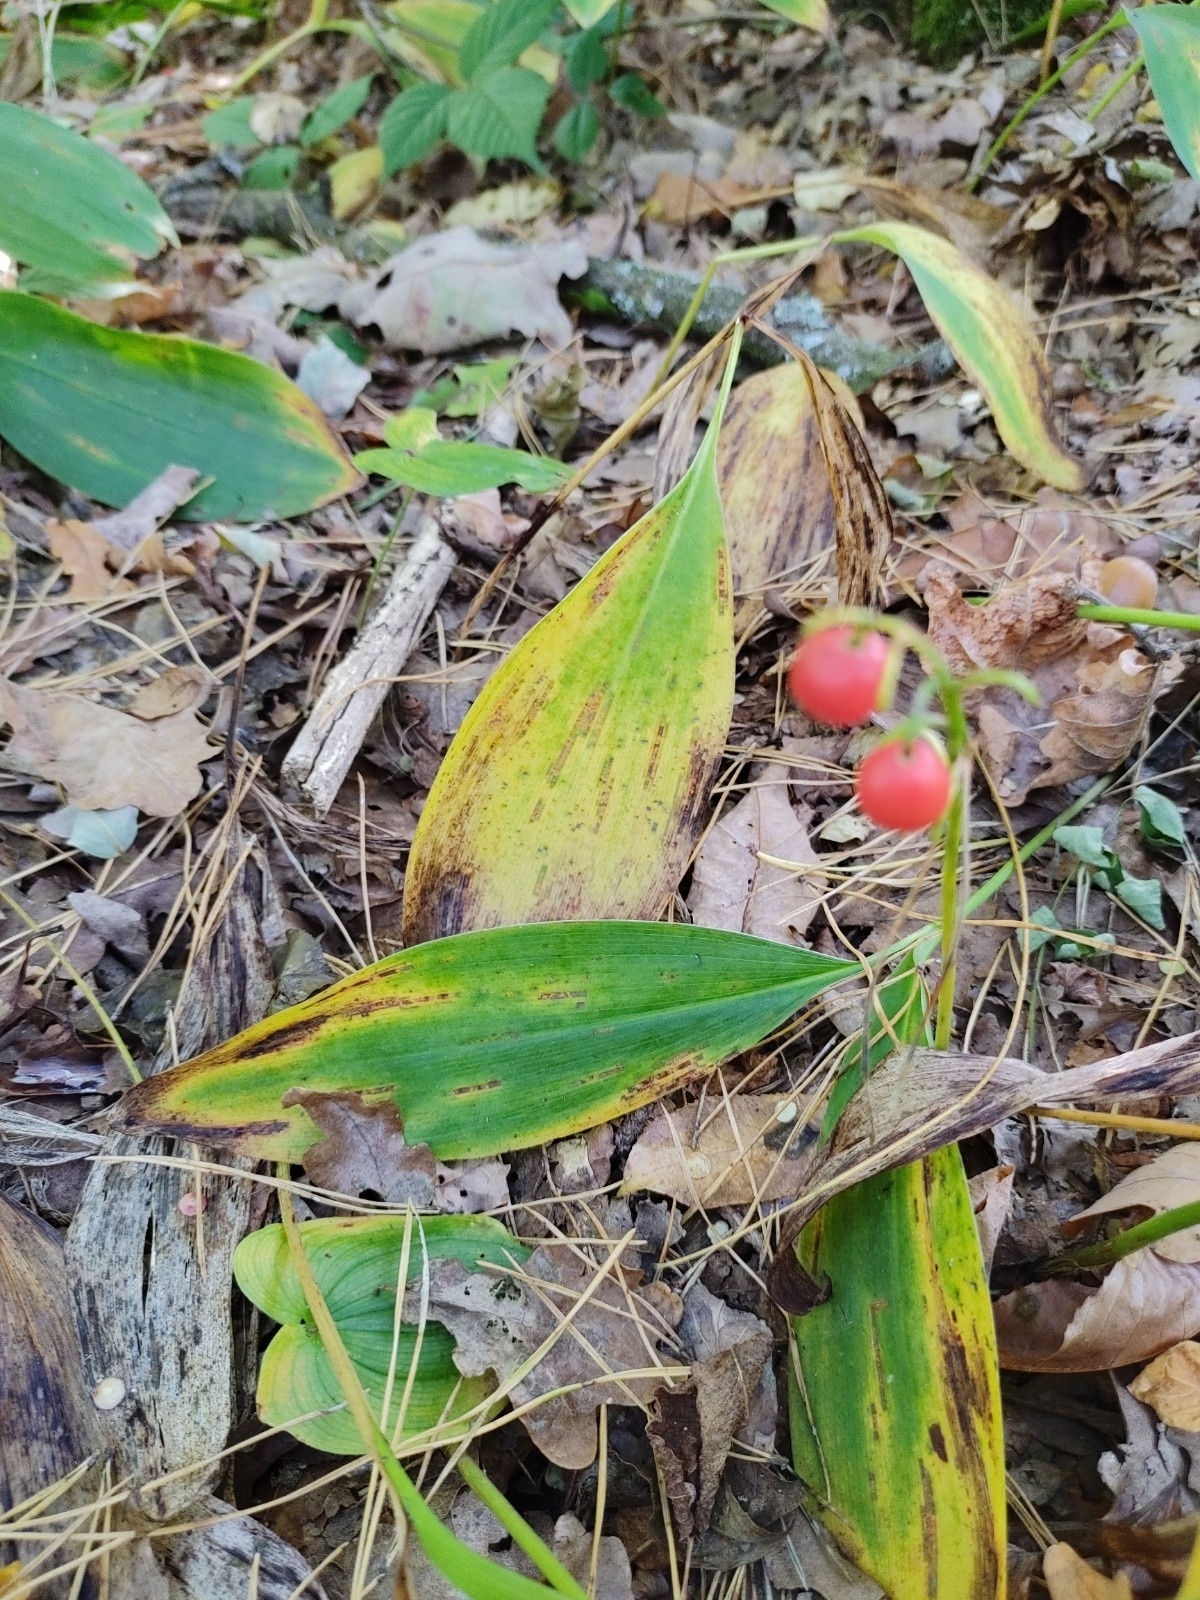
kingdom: Plantae
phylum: Tracheophyta
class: Liliopsida
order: Asparagales
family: Asparagaceae
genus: Convallaria
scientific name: Convallaria majalis
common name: Lily-of-the-valley
